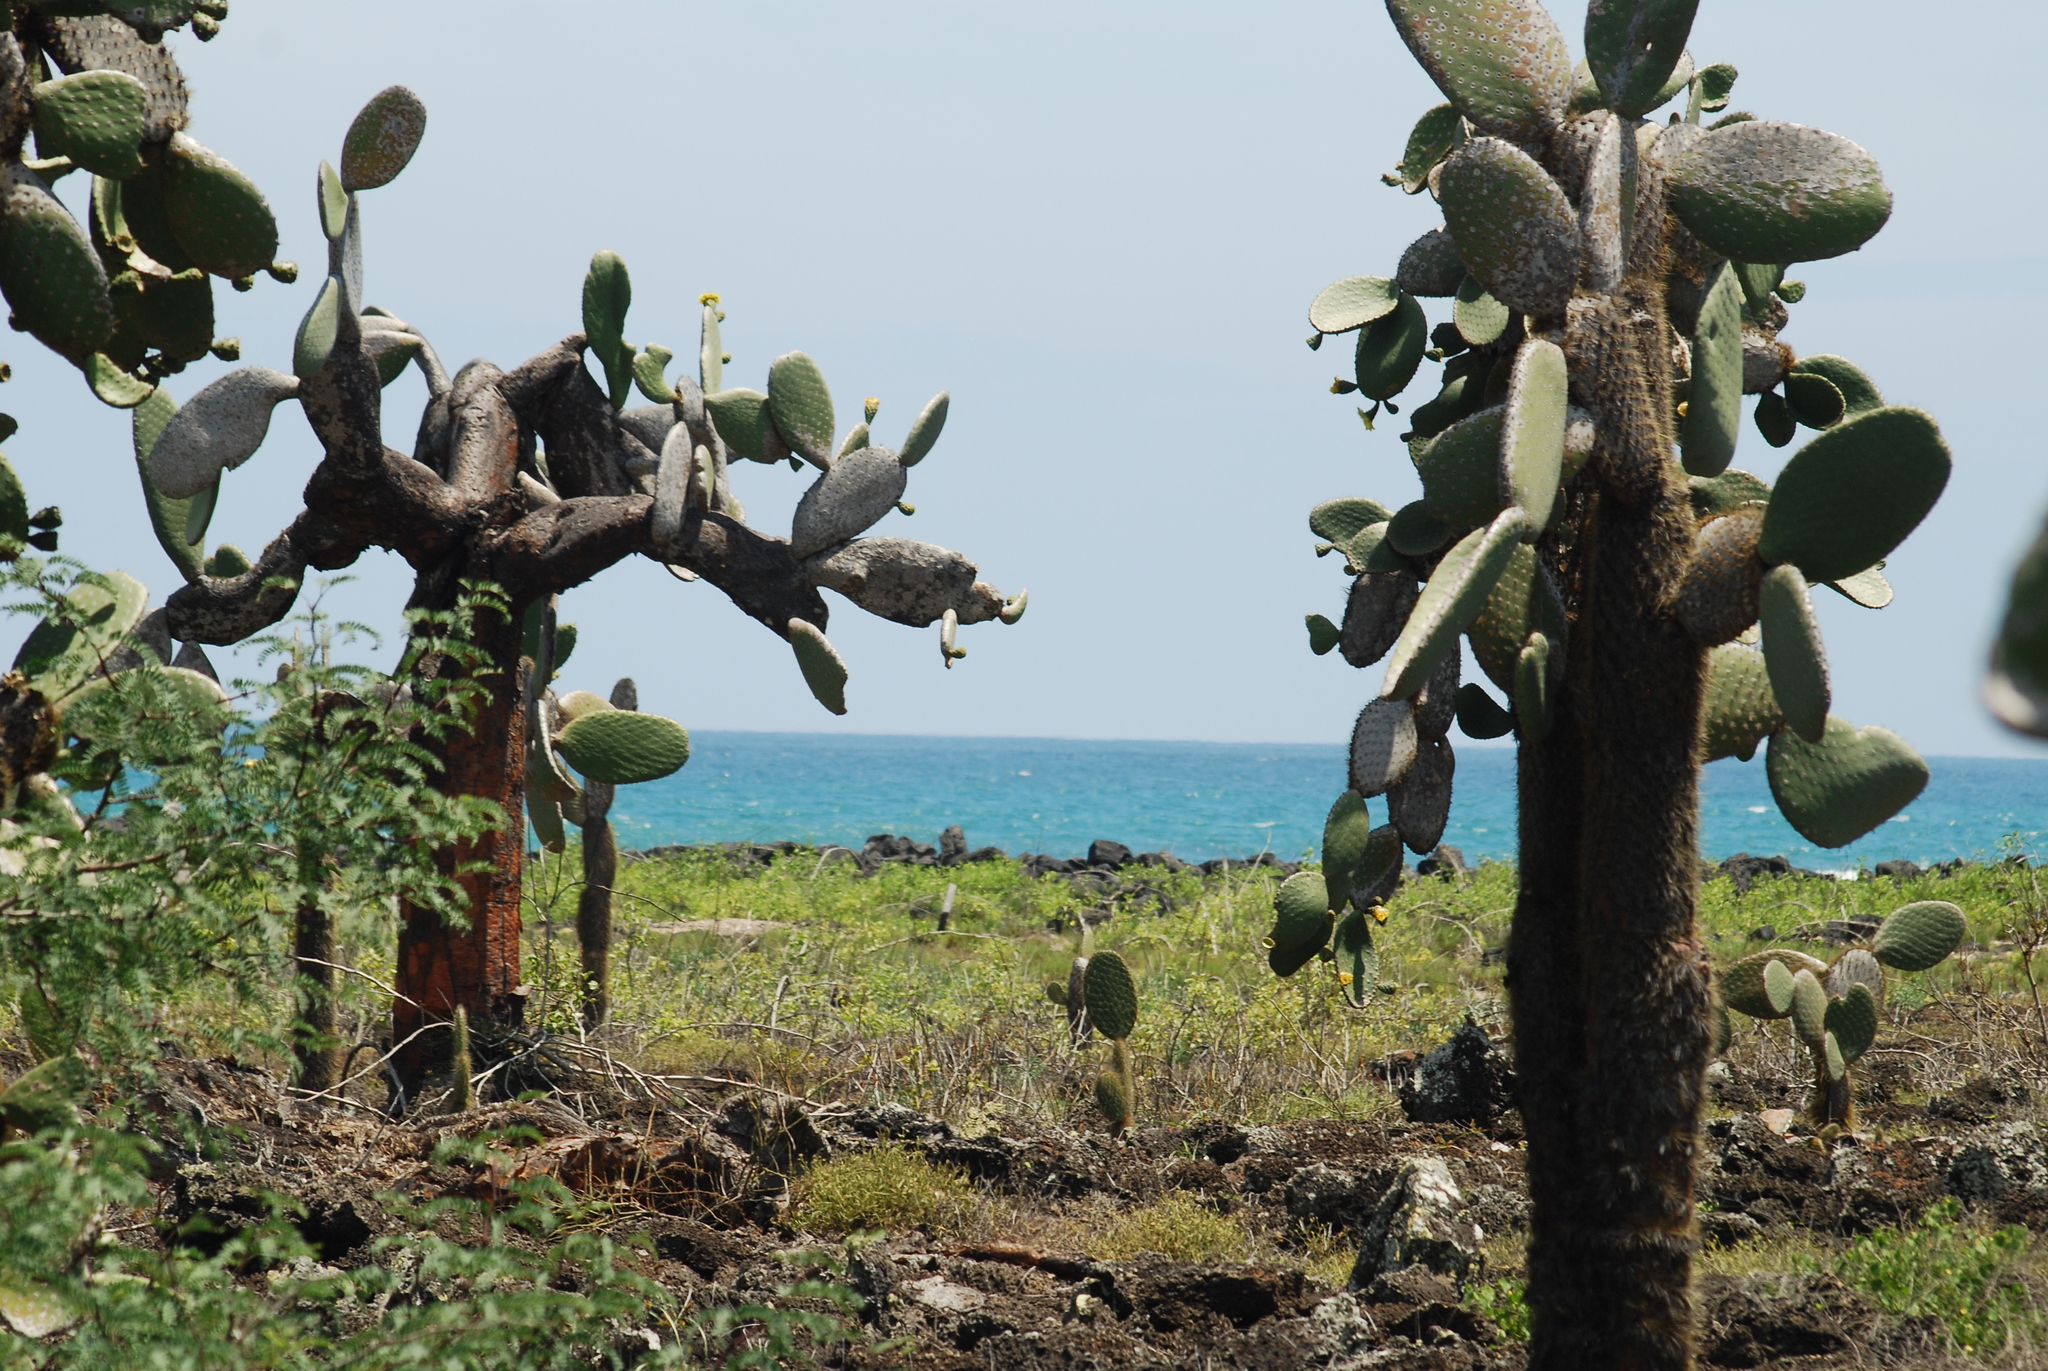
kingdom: Plantae
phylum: Tracheophyta
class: Magnoliopsida
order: Caryophyllales
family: Cactaceae
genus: Opuntia
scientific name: Opuntia galapageia
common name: Galápagos prickly pear
